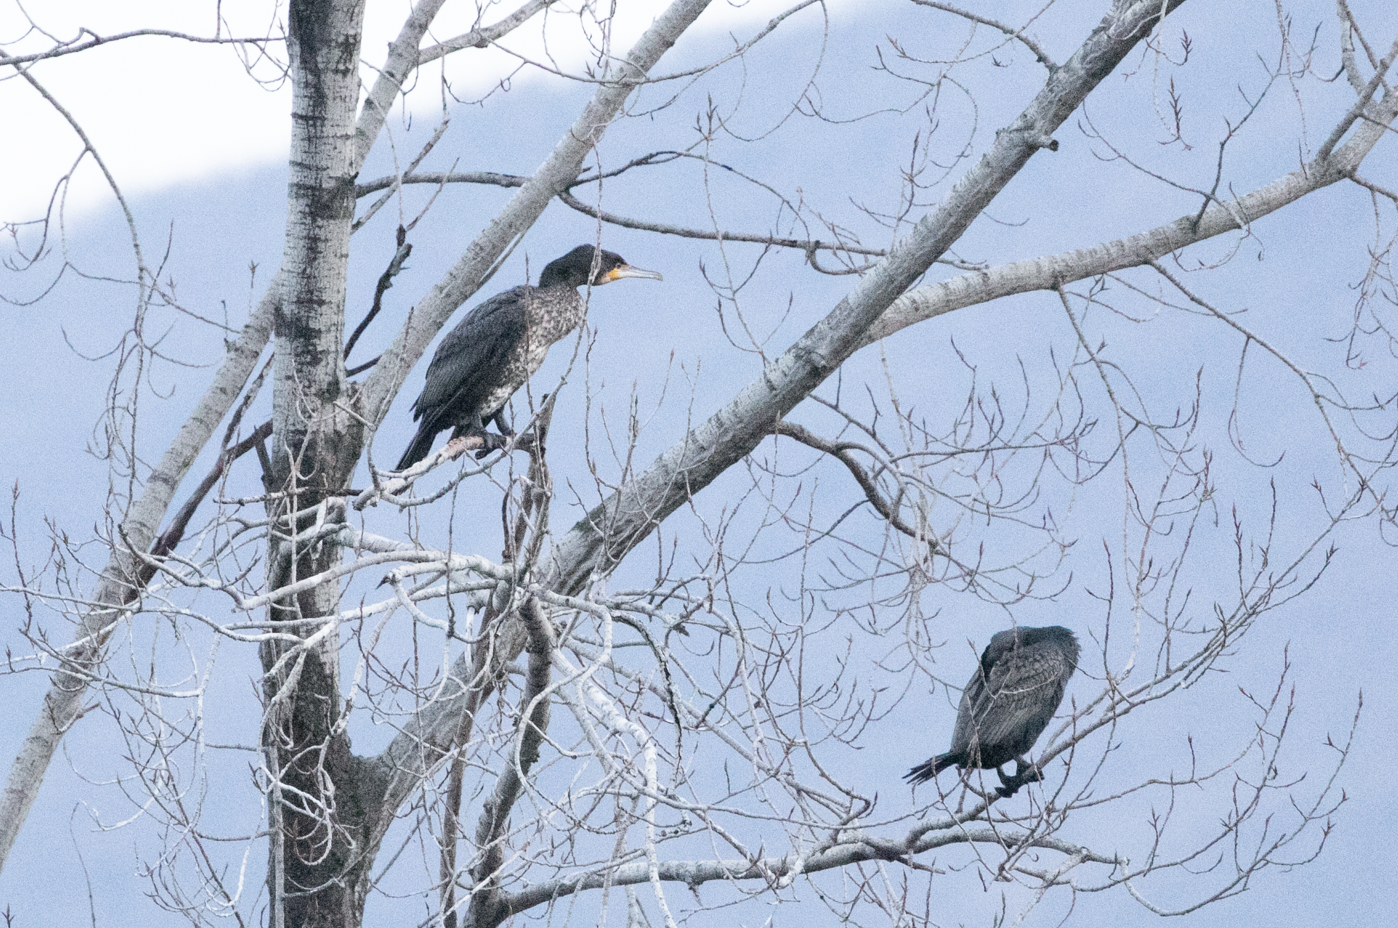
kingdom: Animalia
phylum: Chordata
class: Aves
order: Suliformes
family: Phalacrocoracidae
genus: Phalacrocorax
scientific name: Phalacrocorax carbo
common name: Great cormorant
